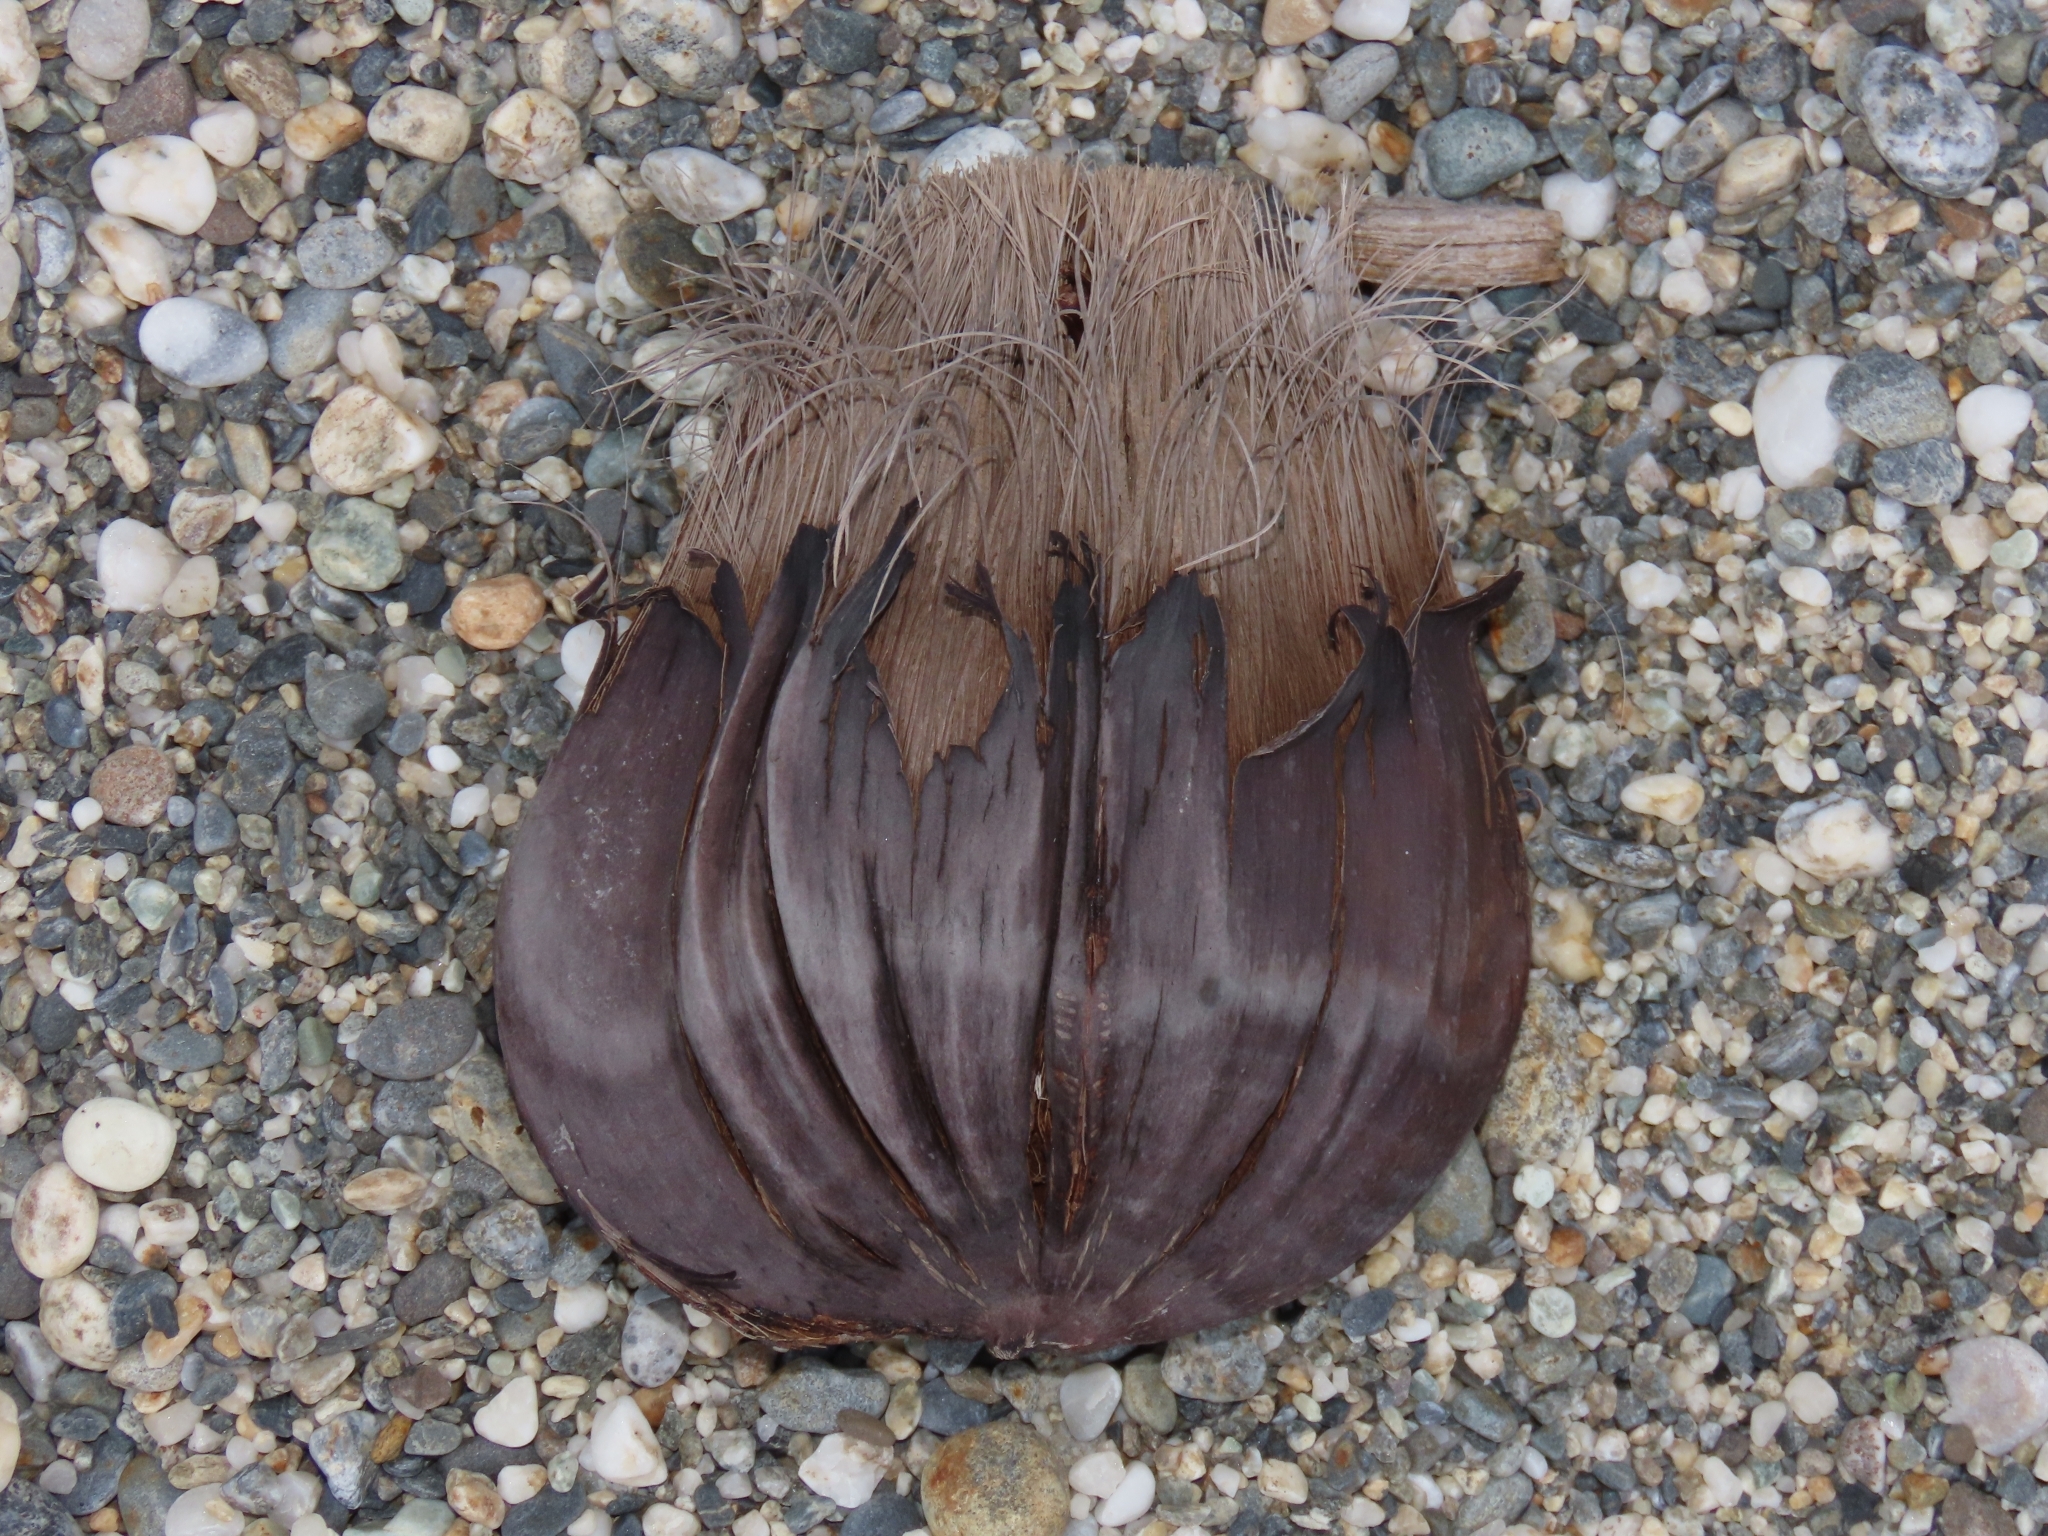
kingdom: Plantae
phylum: Tracheophyta
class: Liliopsida
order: Arecales
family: Arecaceae
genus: Nypa
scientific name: Nypa fruticans
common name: Mangrove palm
